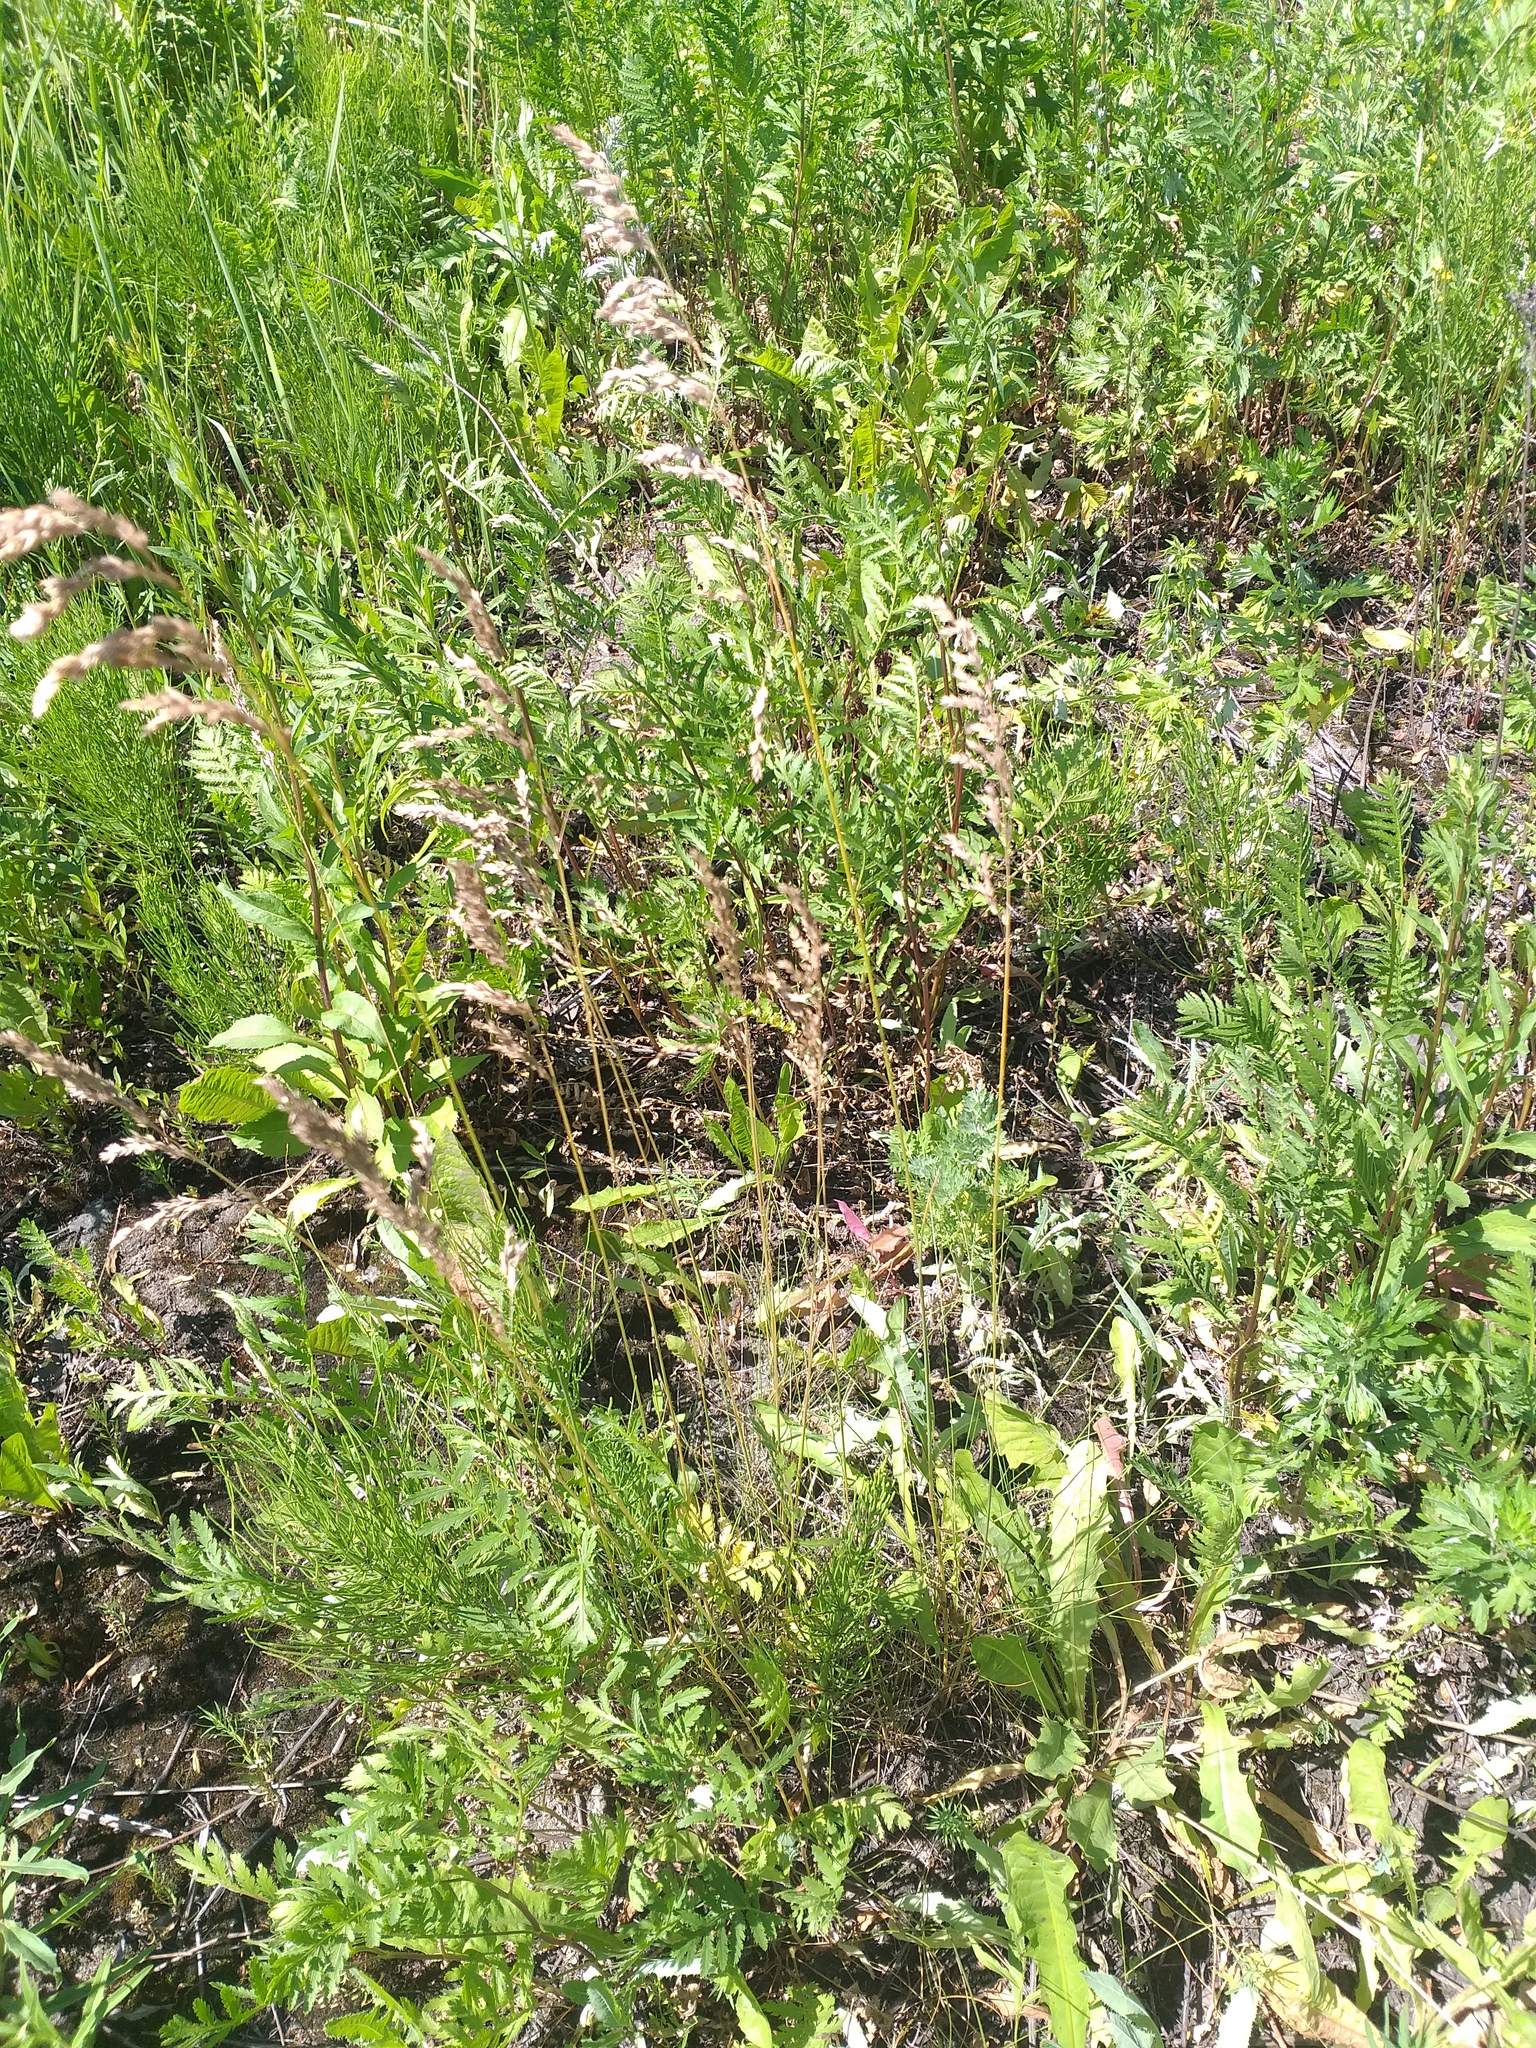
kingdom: Plantae
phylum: Tracheophyta
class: Liliopsida
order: Poales
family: Poaceae
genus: Poa
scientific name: Poa angustifolia
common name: Narrow-leaved meadow-grass
